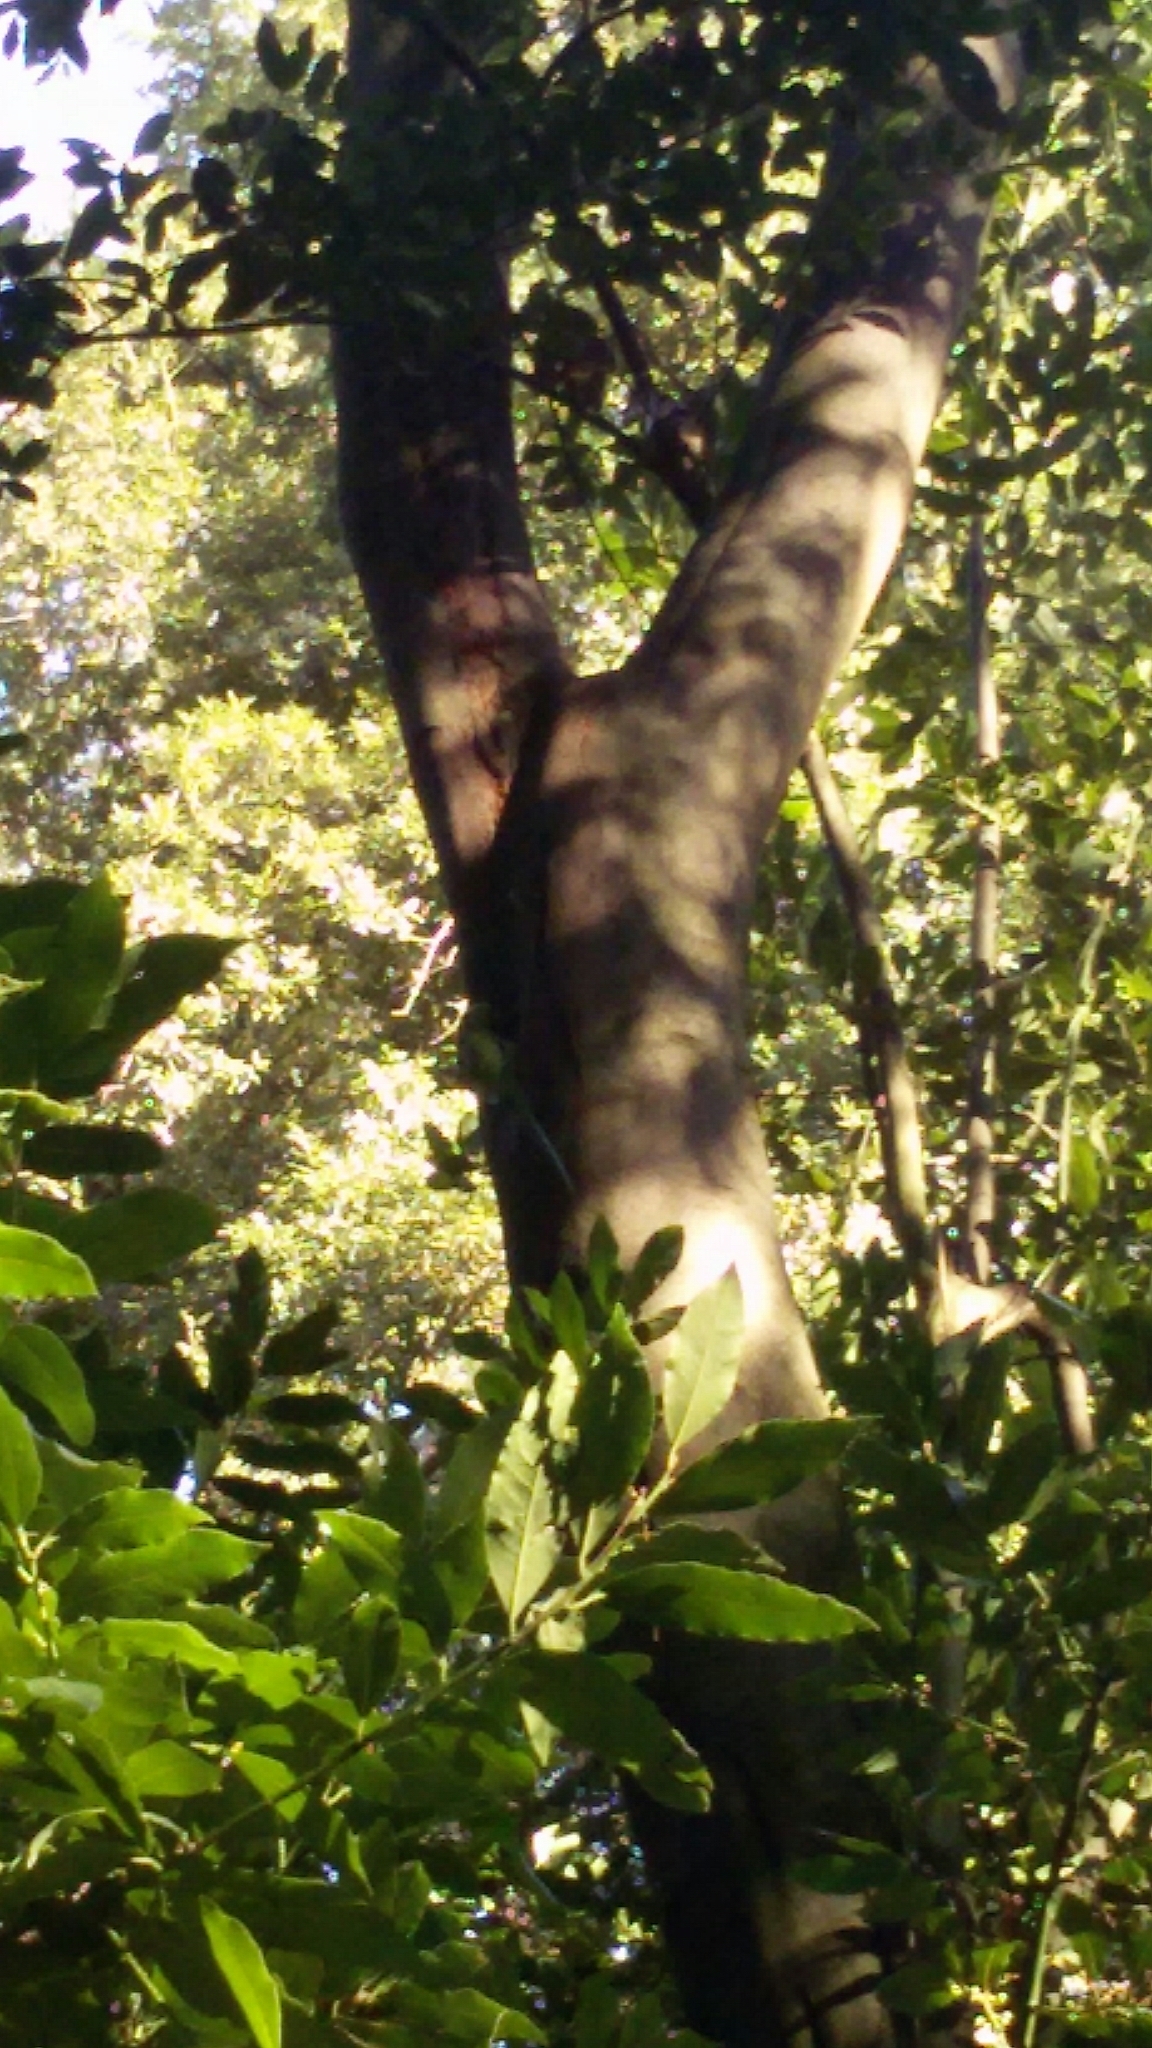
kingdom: Animalia
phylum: Chordata
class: Aves
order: Psittaciformes
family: Psittacidae
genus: Psittacula
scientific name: Psittacula krameri
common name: Rose-ringed parakeet
